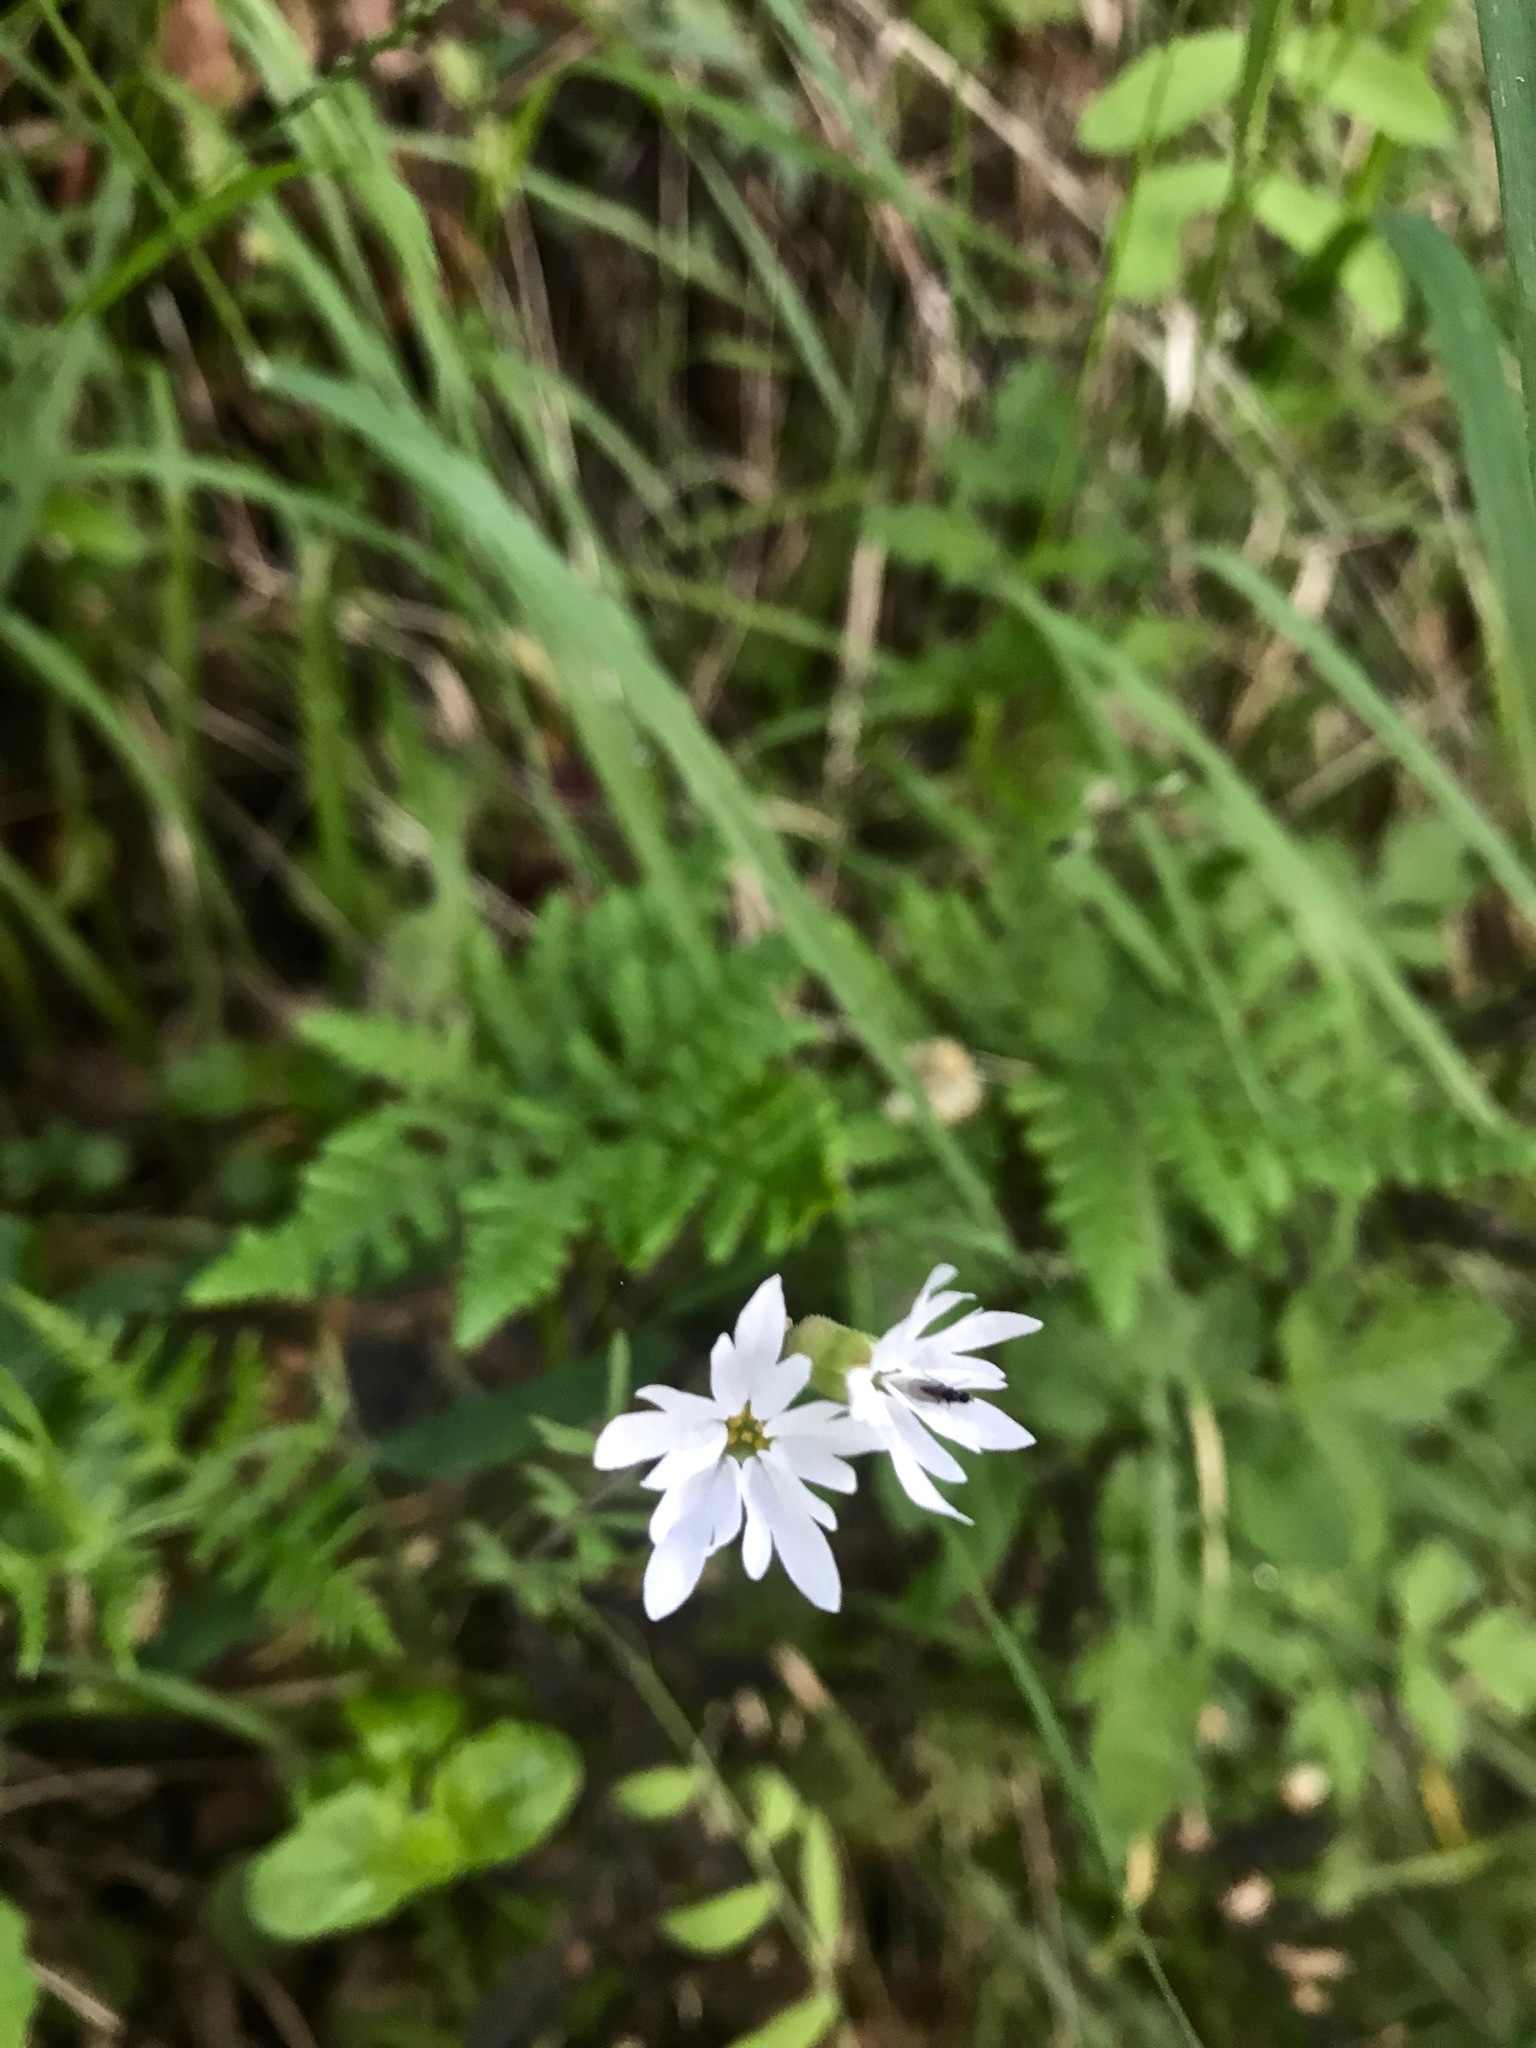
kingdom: Plantae
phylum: Tracheophyta
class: Magnoliopsida
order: Saxifragales
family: Saxifragaceae
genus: Lithophragma
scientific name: Lithophragma heterophyllum
